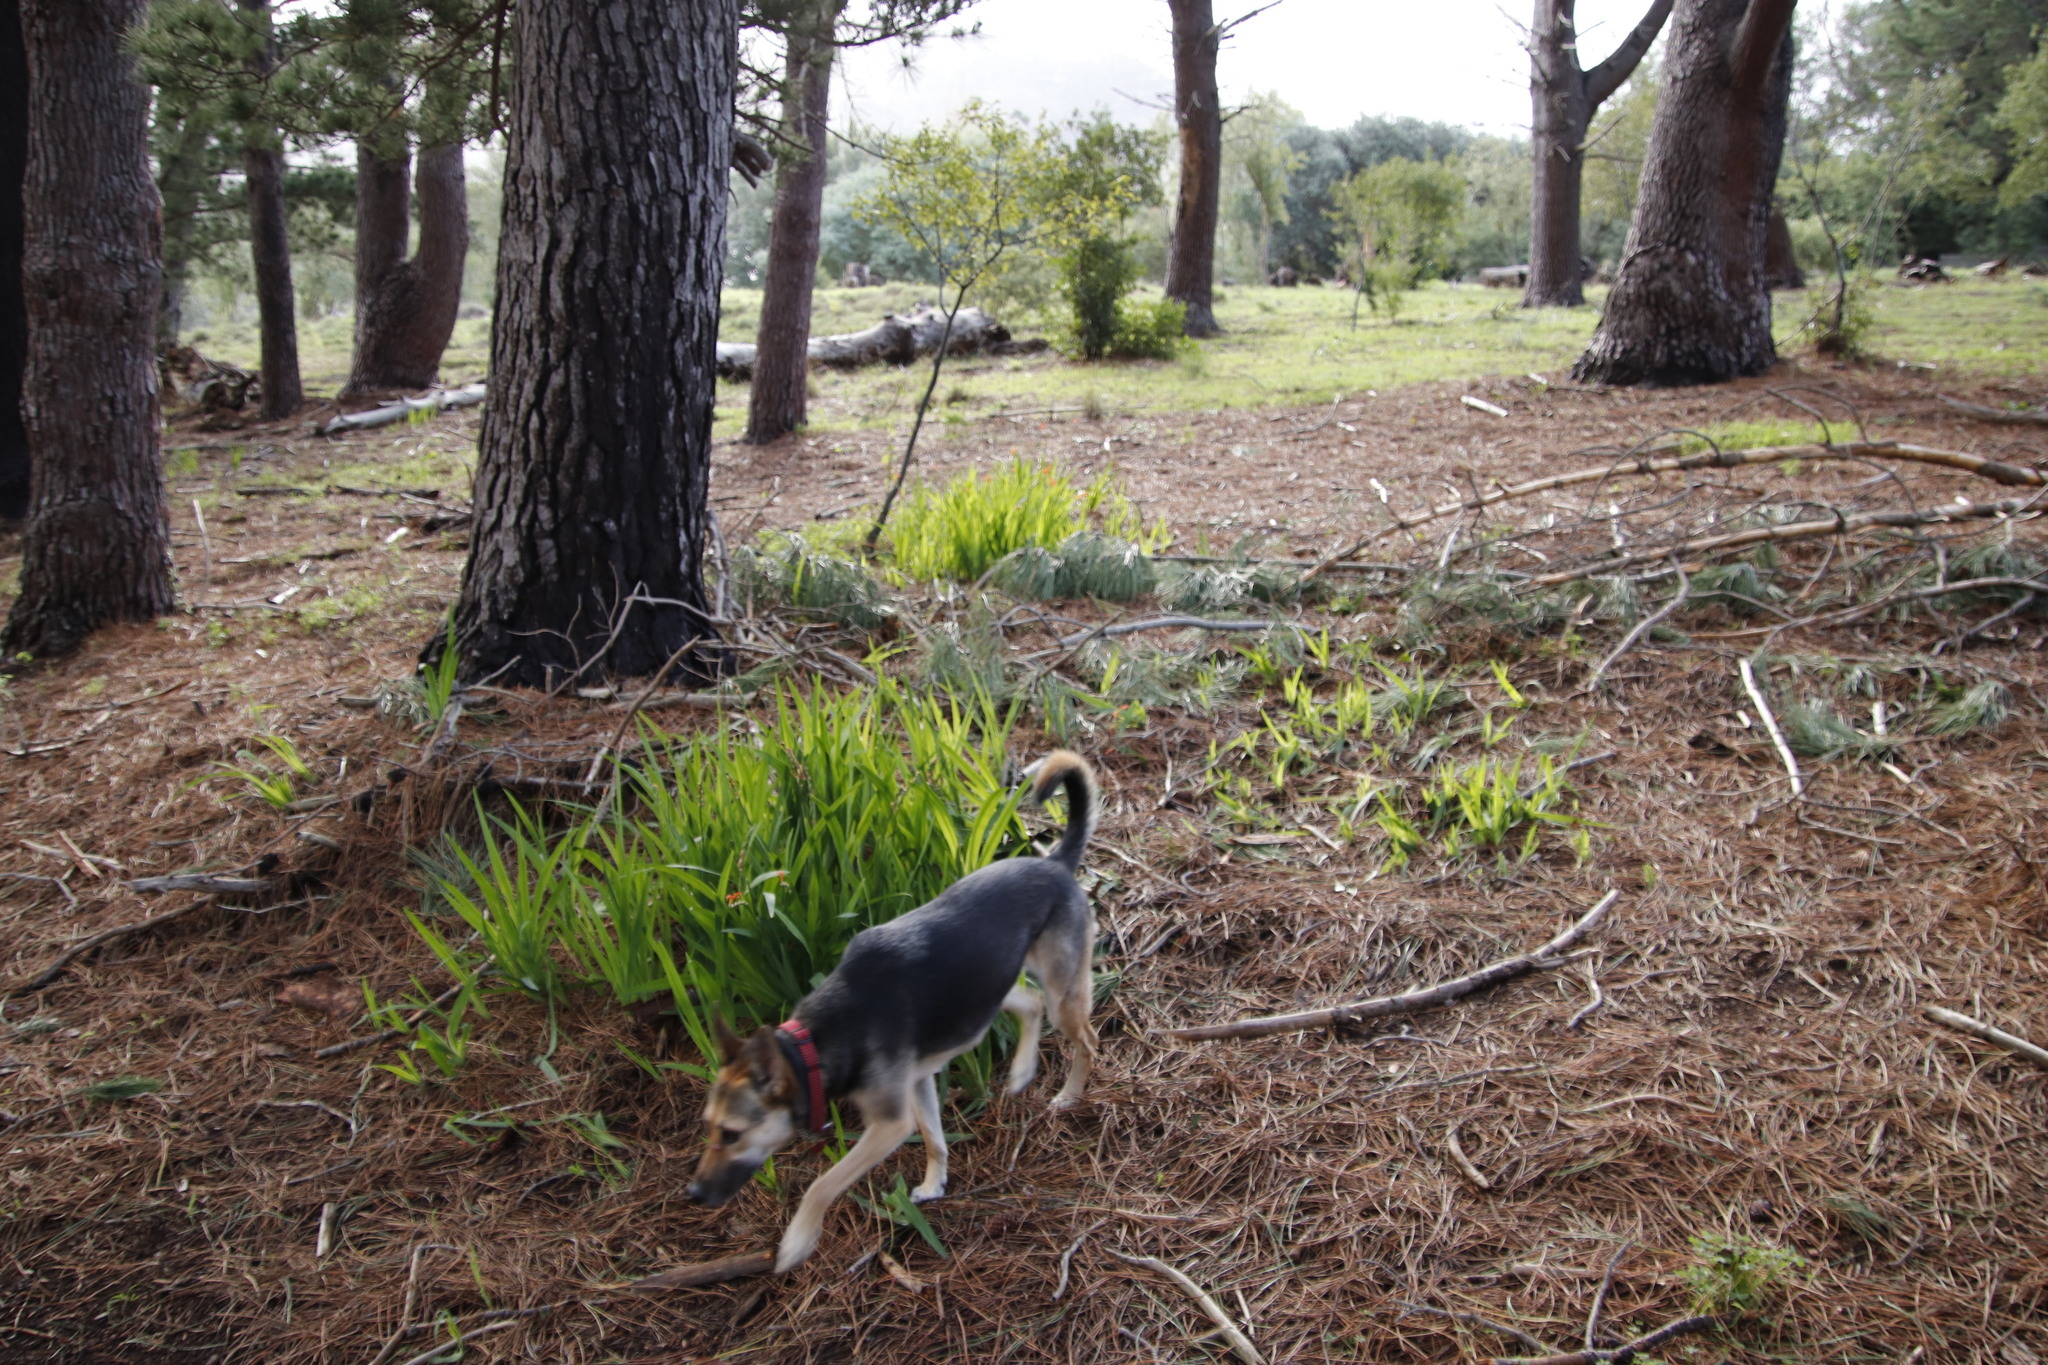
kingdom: Plantae
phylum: Tracheophyta
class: Liliopsida
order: Asparagales
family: Iridaceae
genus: Chasmanthe
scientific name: Chasmanthe aethiopica
